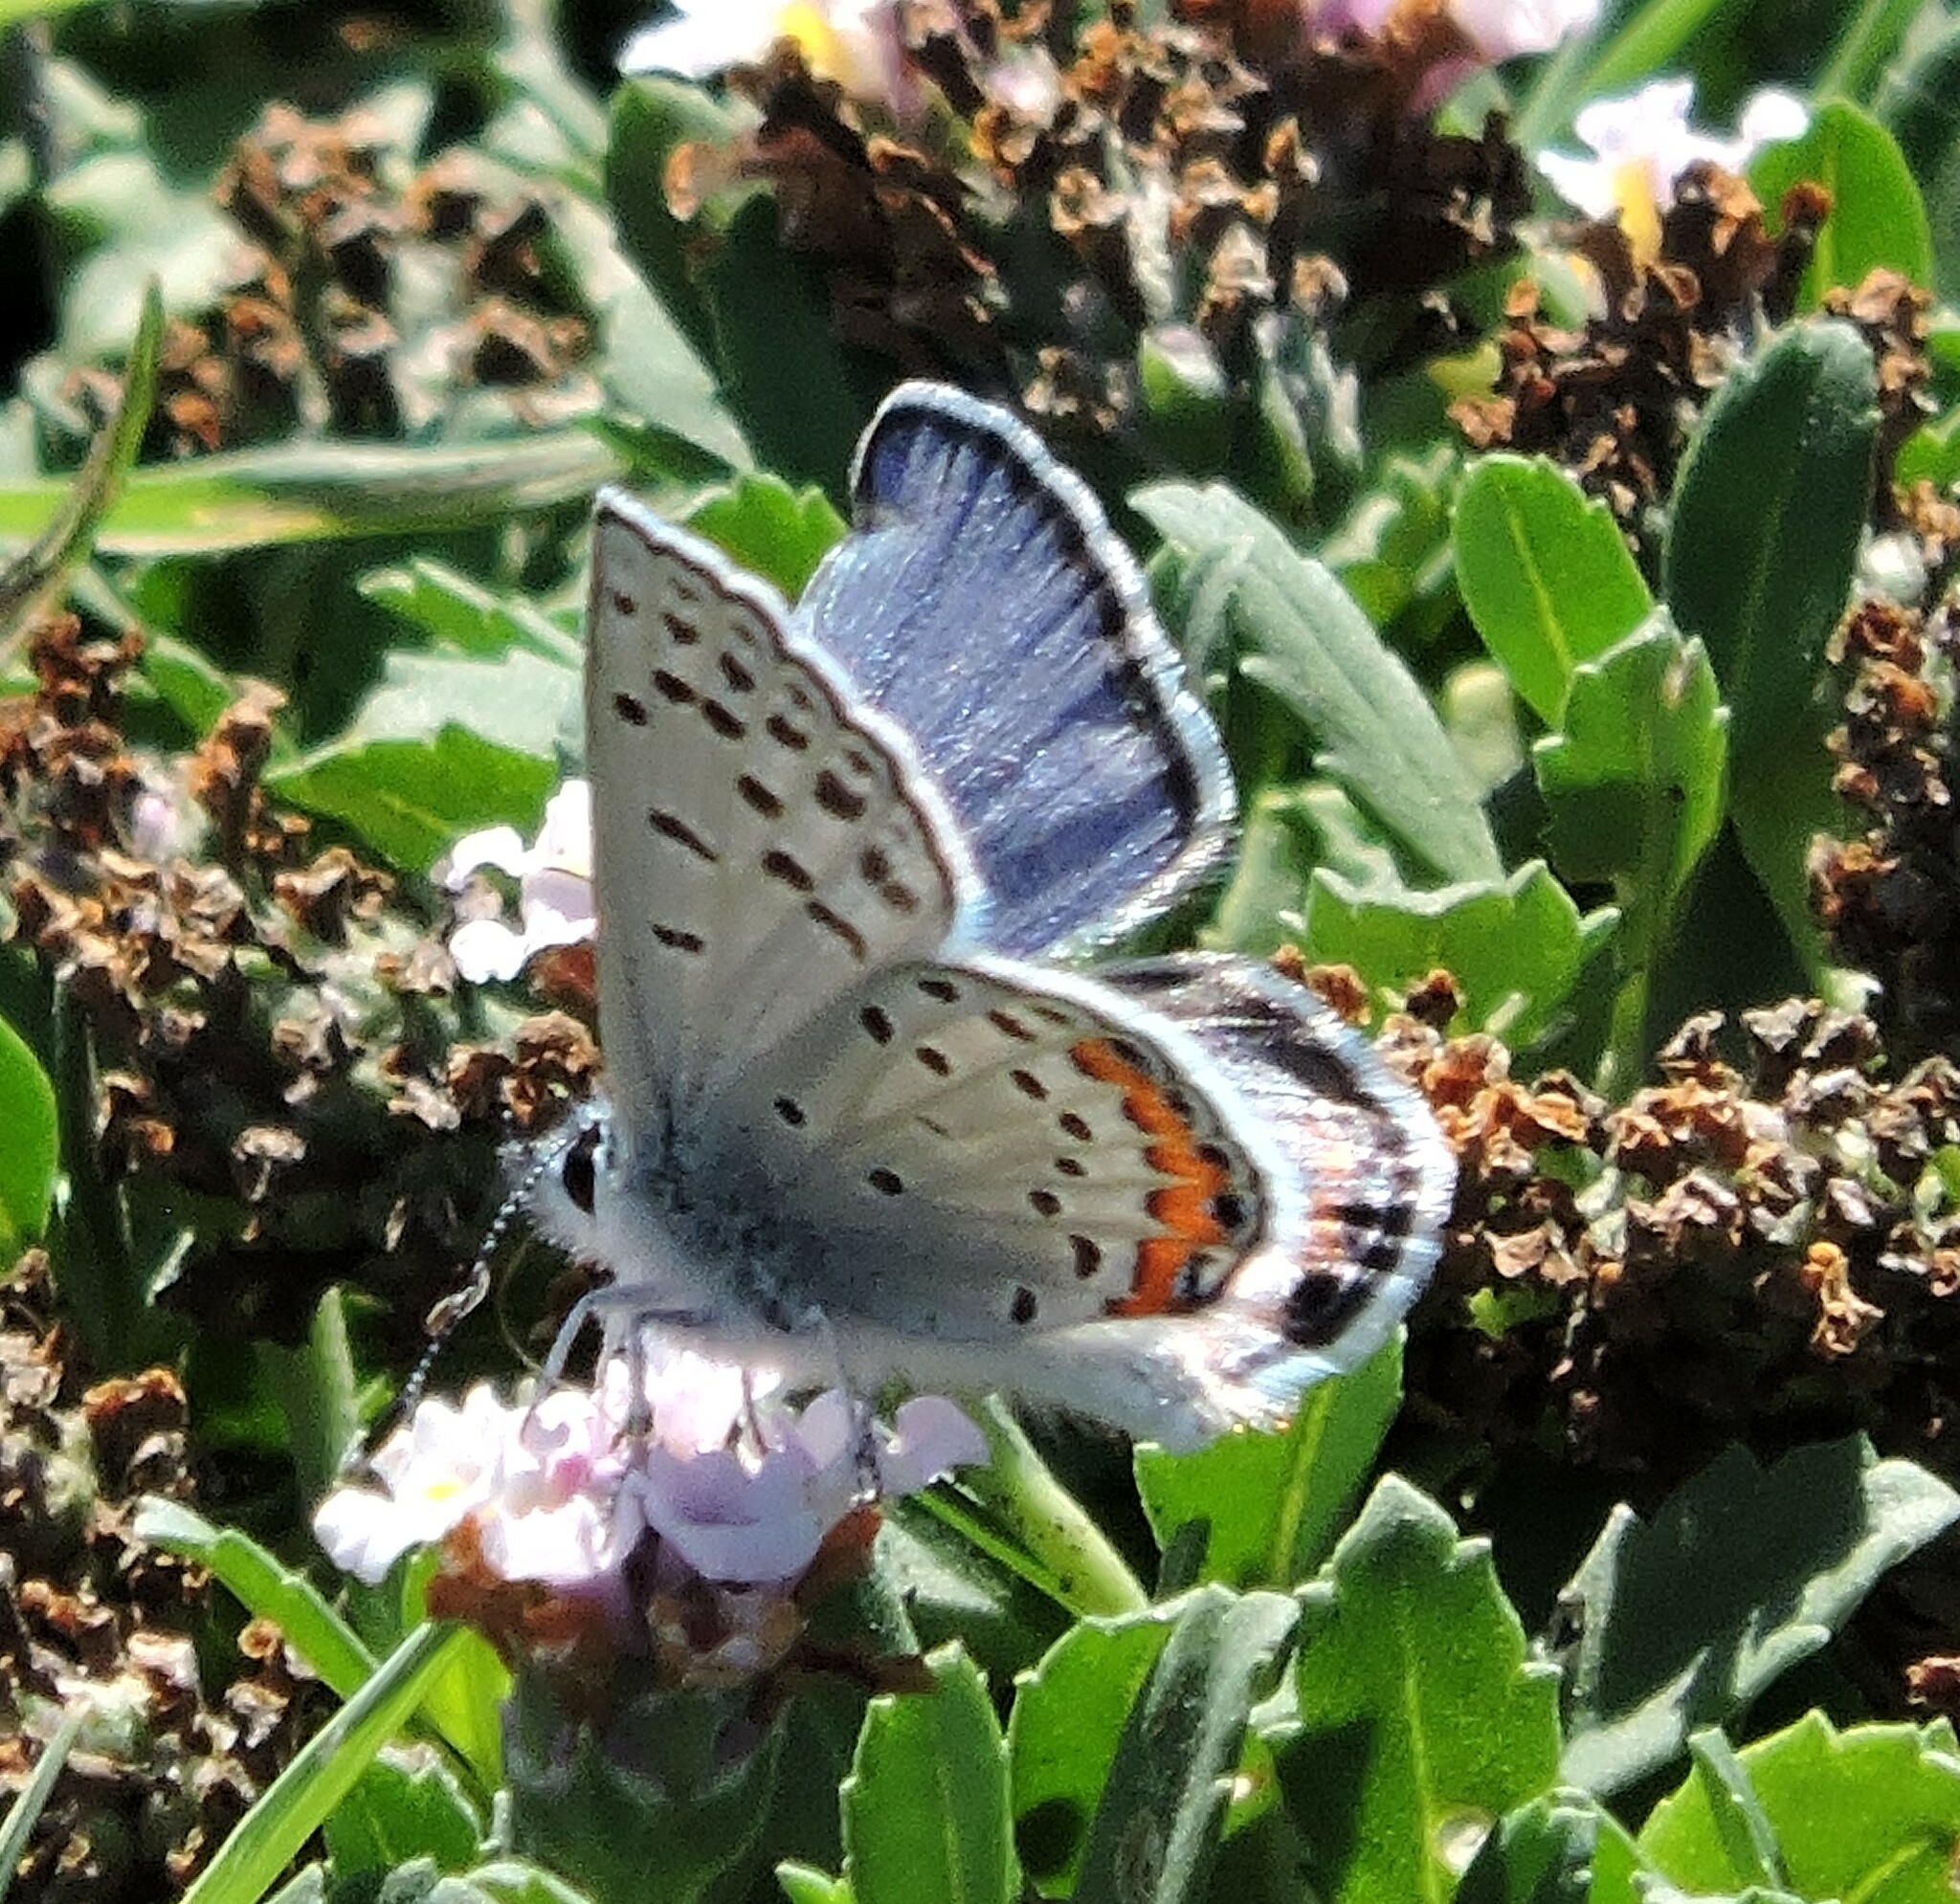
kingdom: Animalia
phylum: Arthropoda
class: Insecta
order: Lepidoptera
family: Lycaenidae
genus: Icaricia
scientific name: Icaricia acmon
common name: Acmon blue
